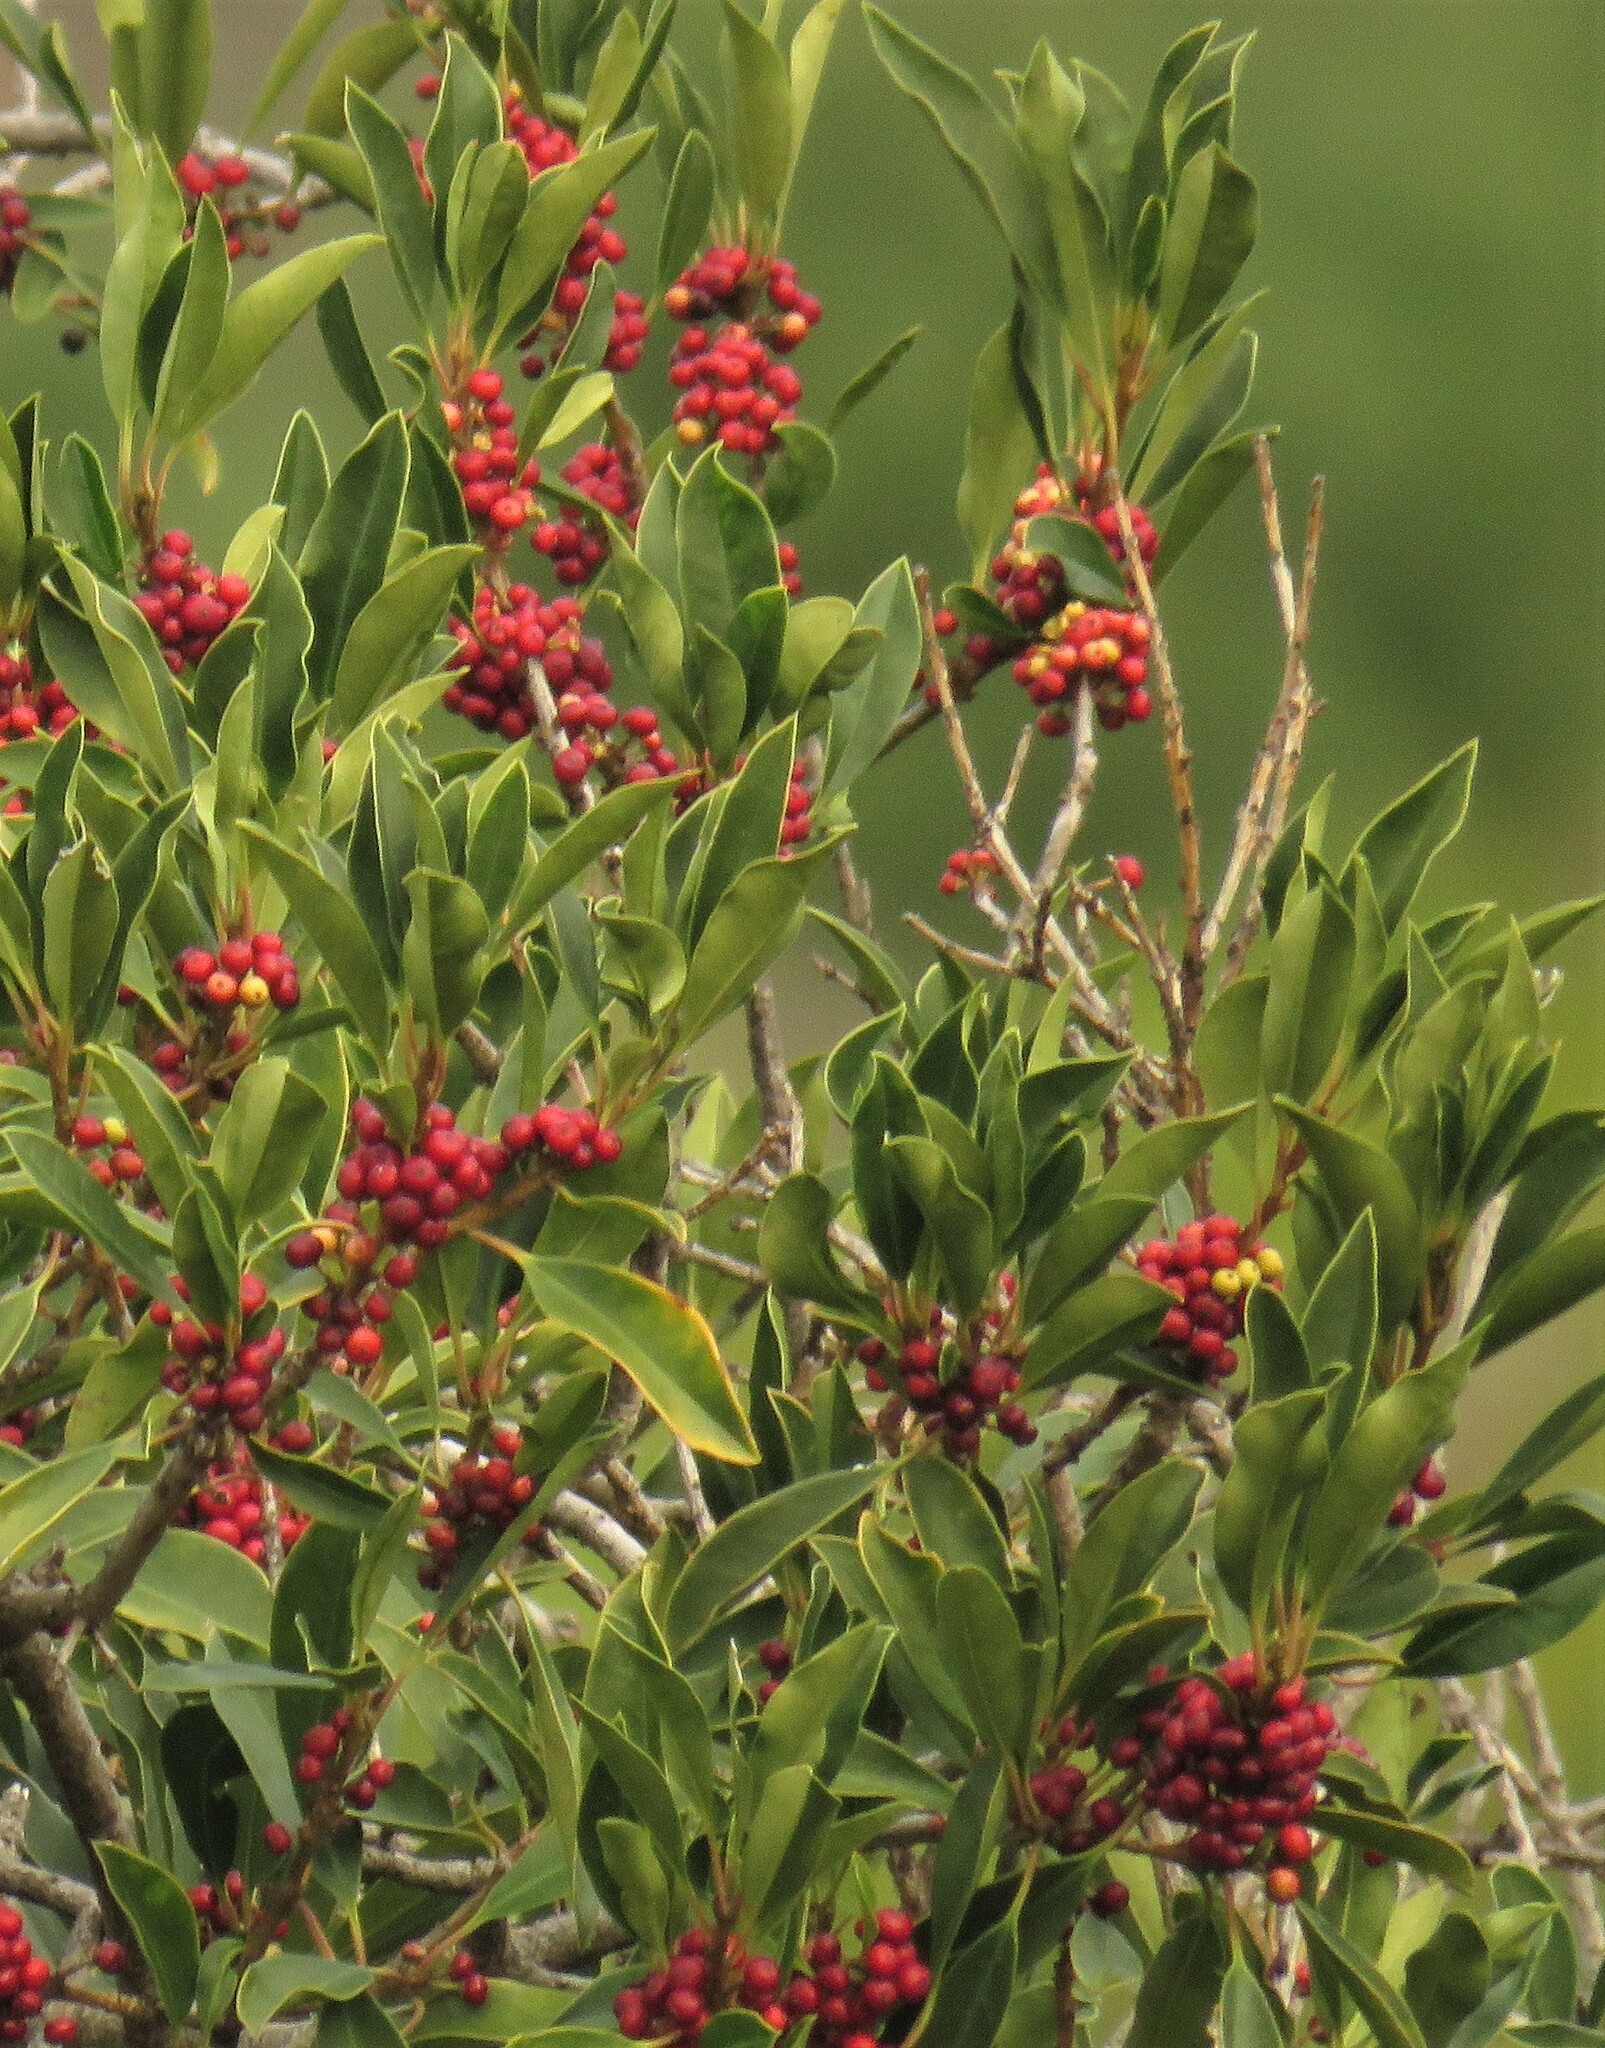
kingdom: Plantae
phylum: Tracheophyta
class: Magnoliopsida
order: Aquifoliales
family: Aquifoliaceae
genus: Ilex
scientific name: Ilex mitis
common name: African holly
